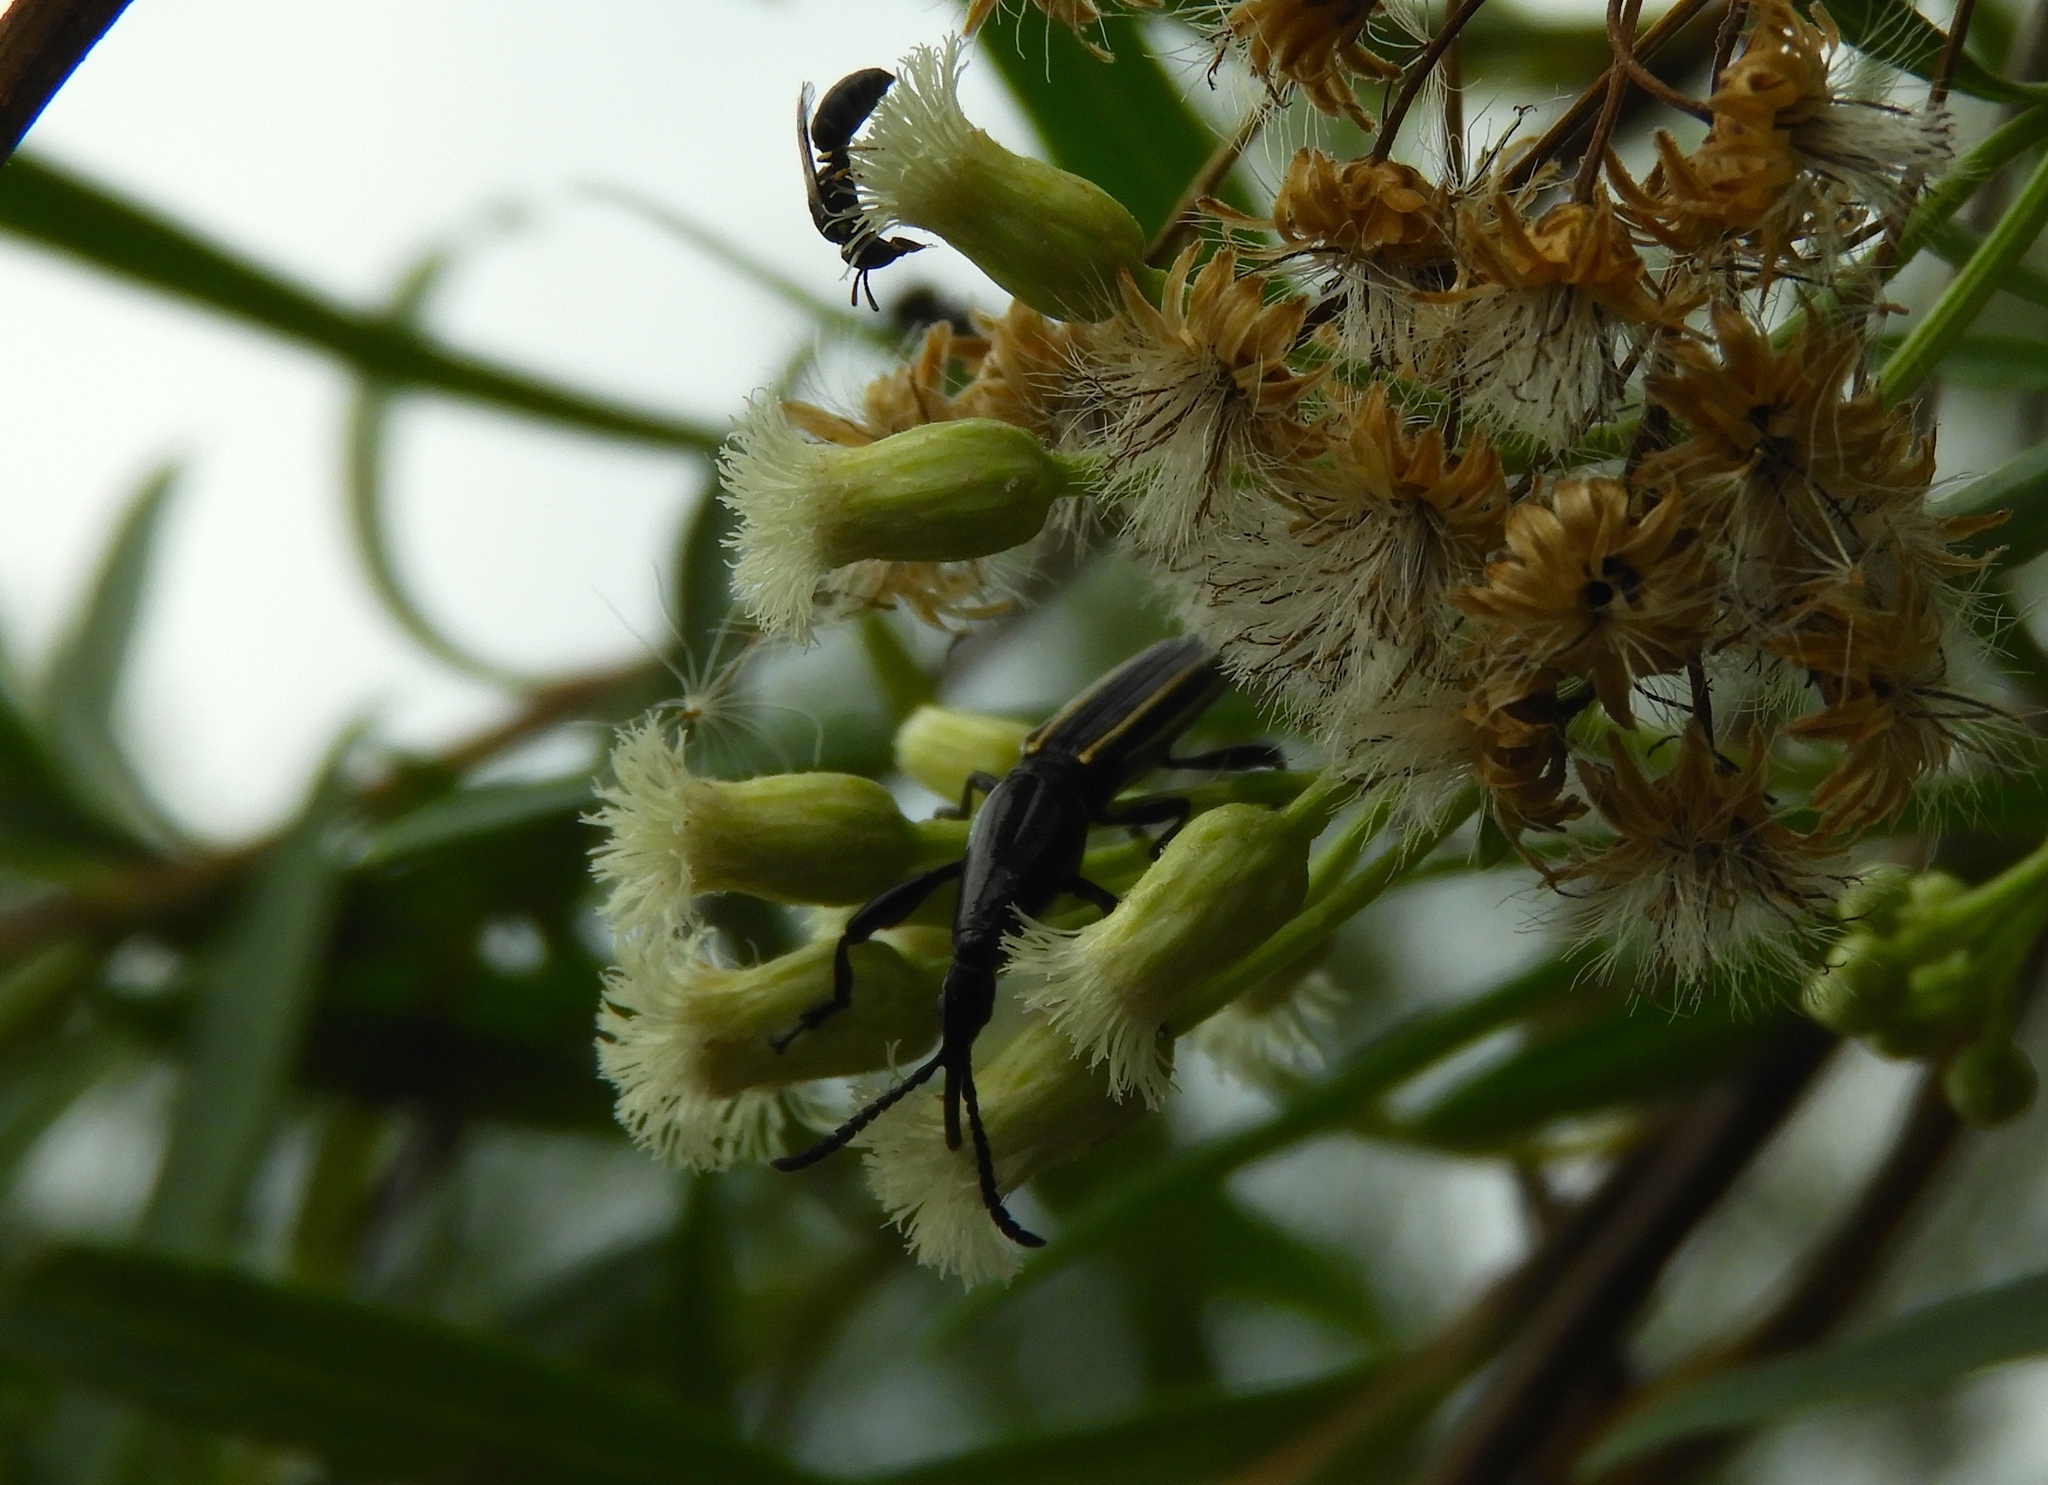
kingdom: Animalia
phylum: Arthropoda
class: Insecta
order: Coleoptera
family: Brentidae
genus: Brentus
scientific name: Brentus anchorago
